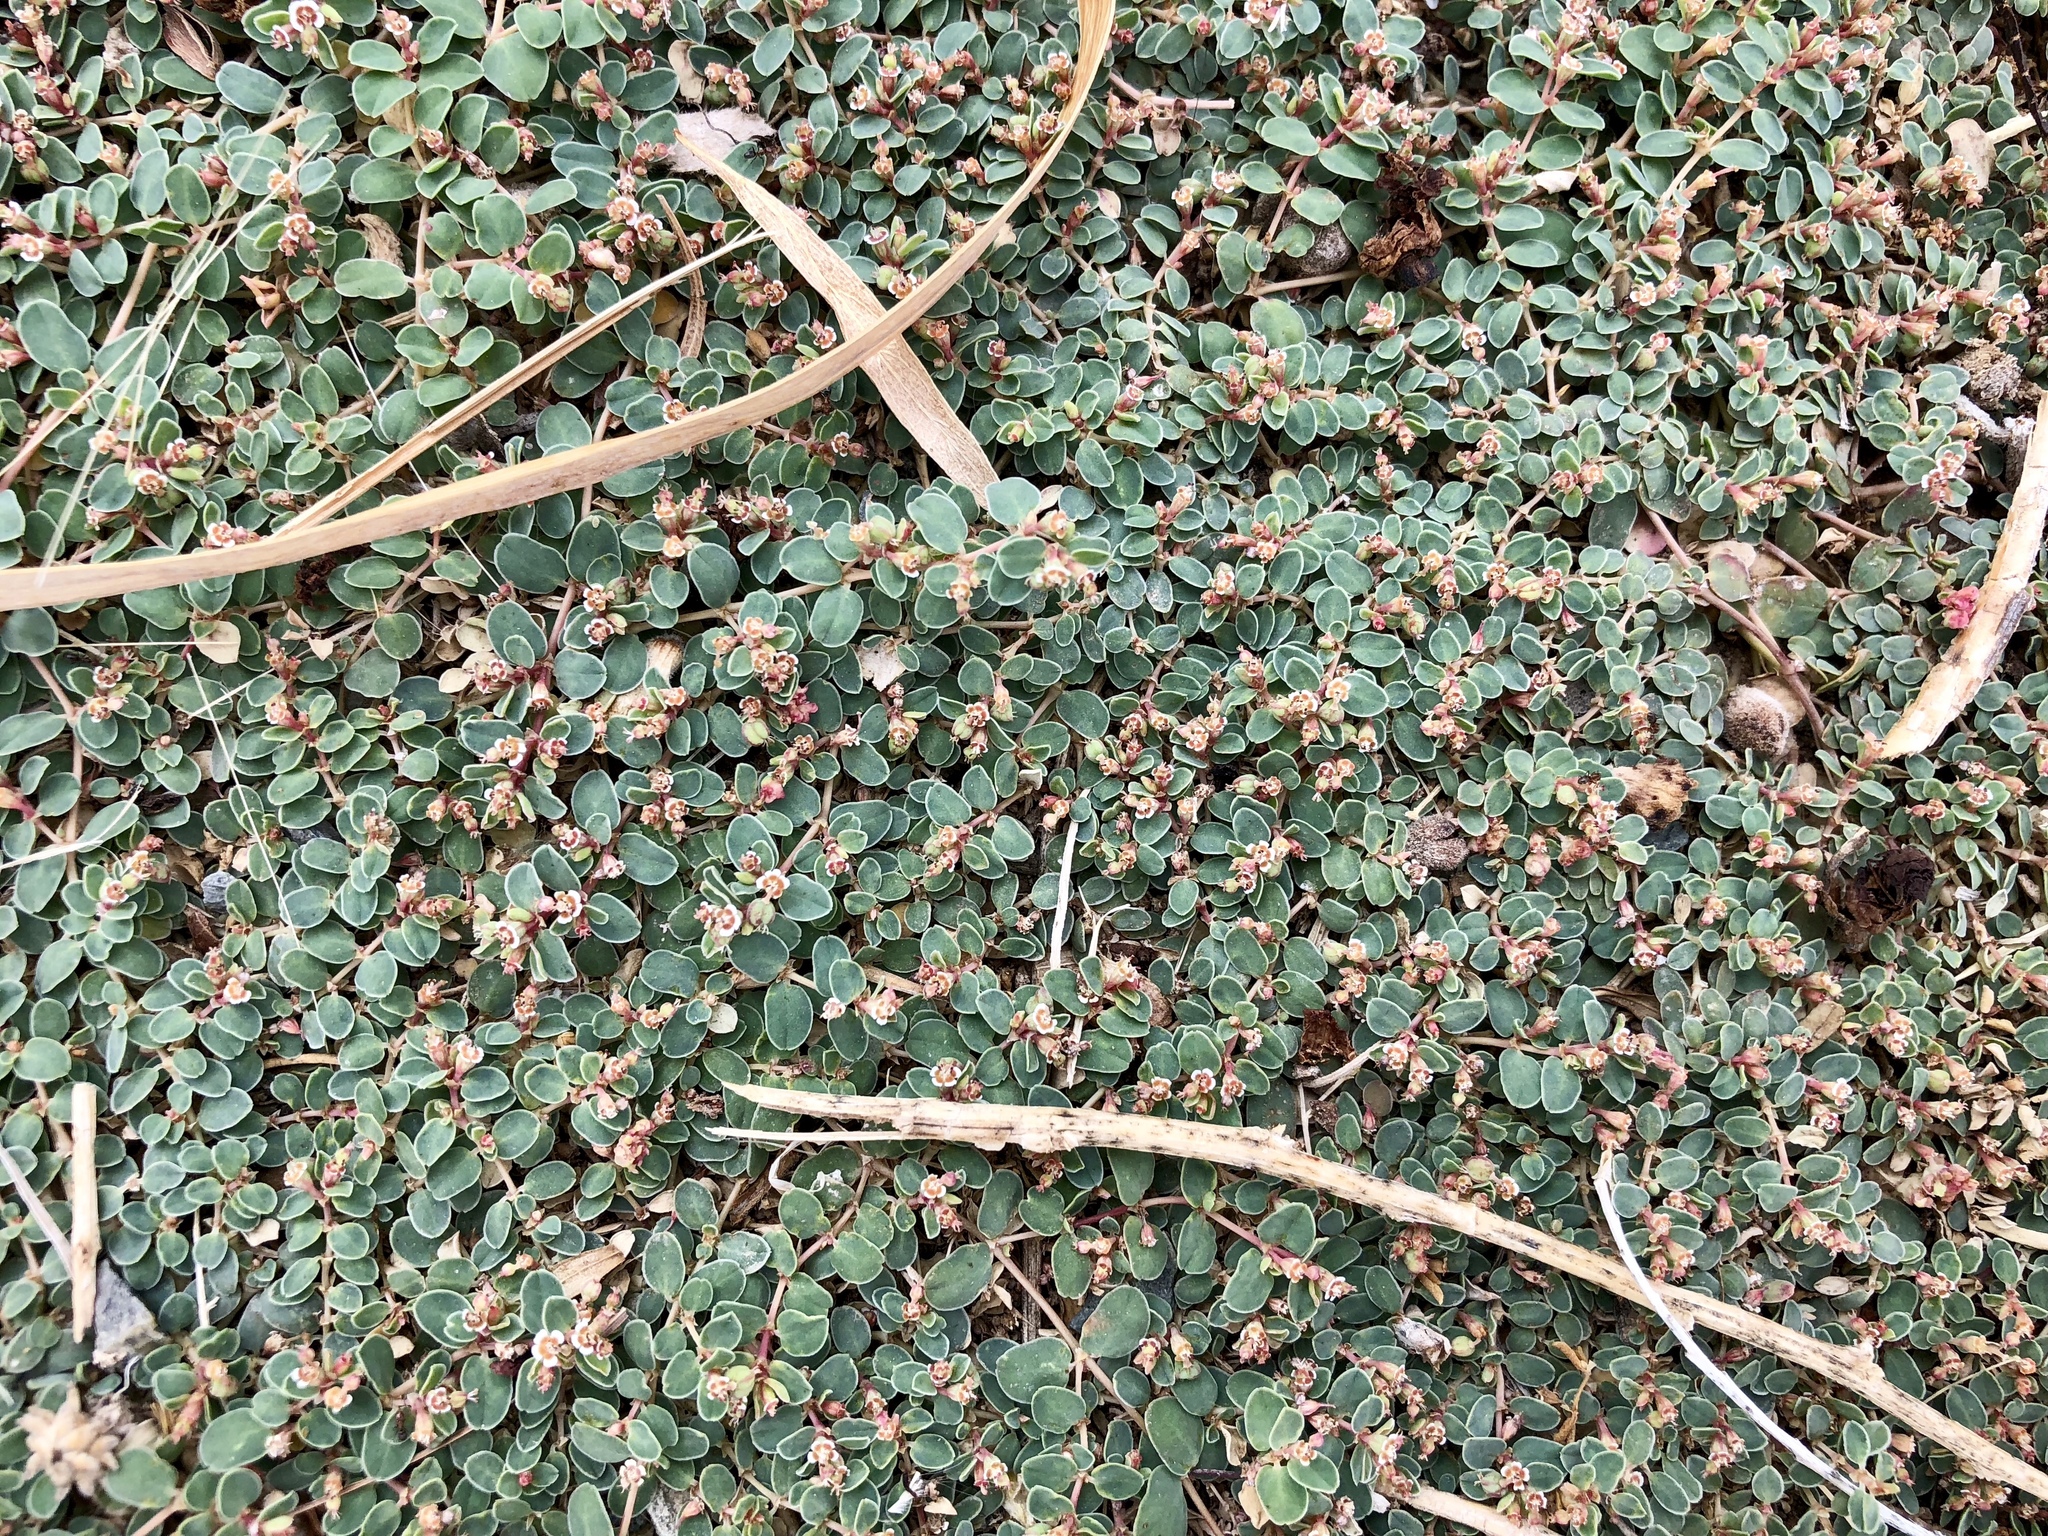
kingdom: Plantae
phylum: Tracheophyta
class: Magnoliopsida
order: Malpighiales
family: Euphorbiaceae
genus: Euphorbia
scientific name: Euphorbia albomarginata
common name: Whitemargin sandmat
